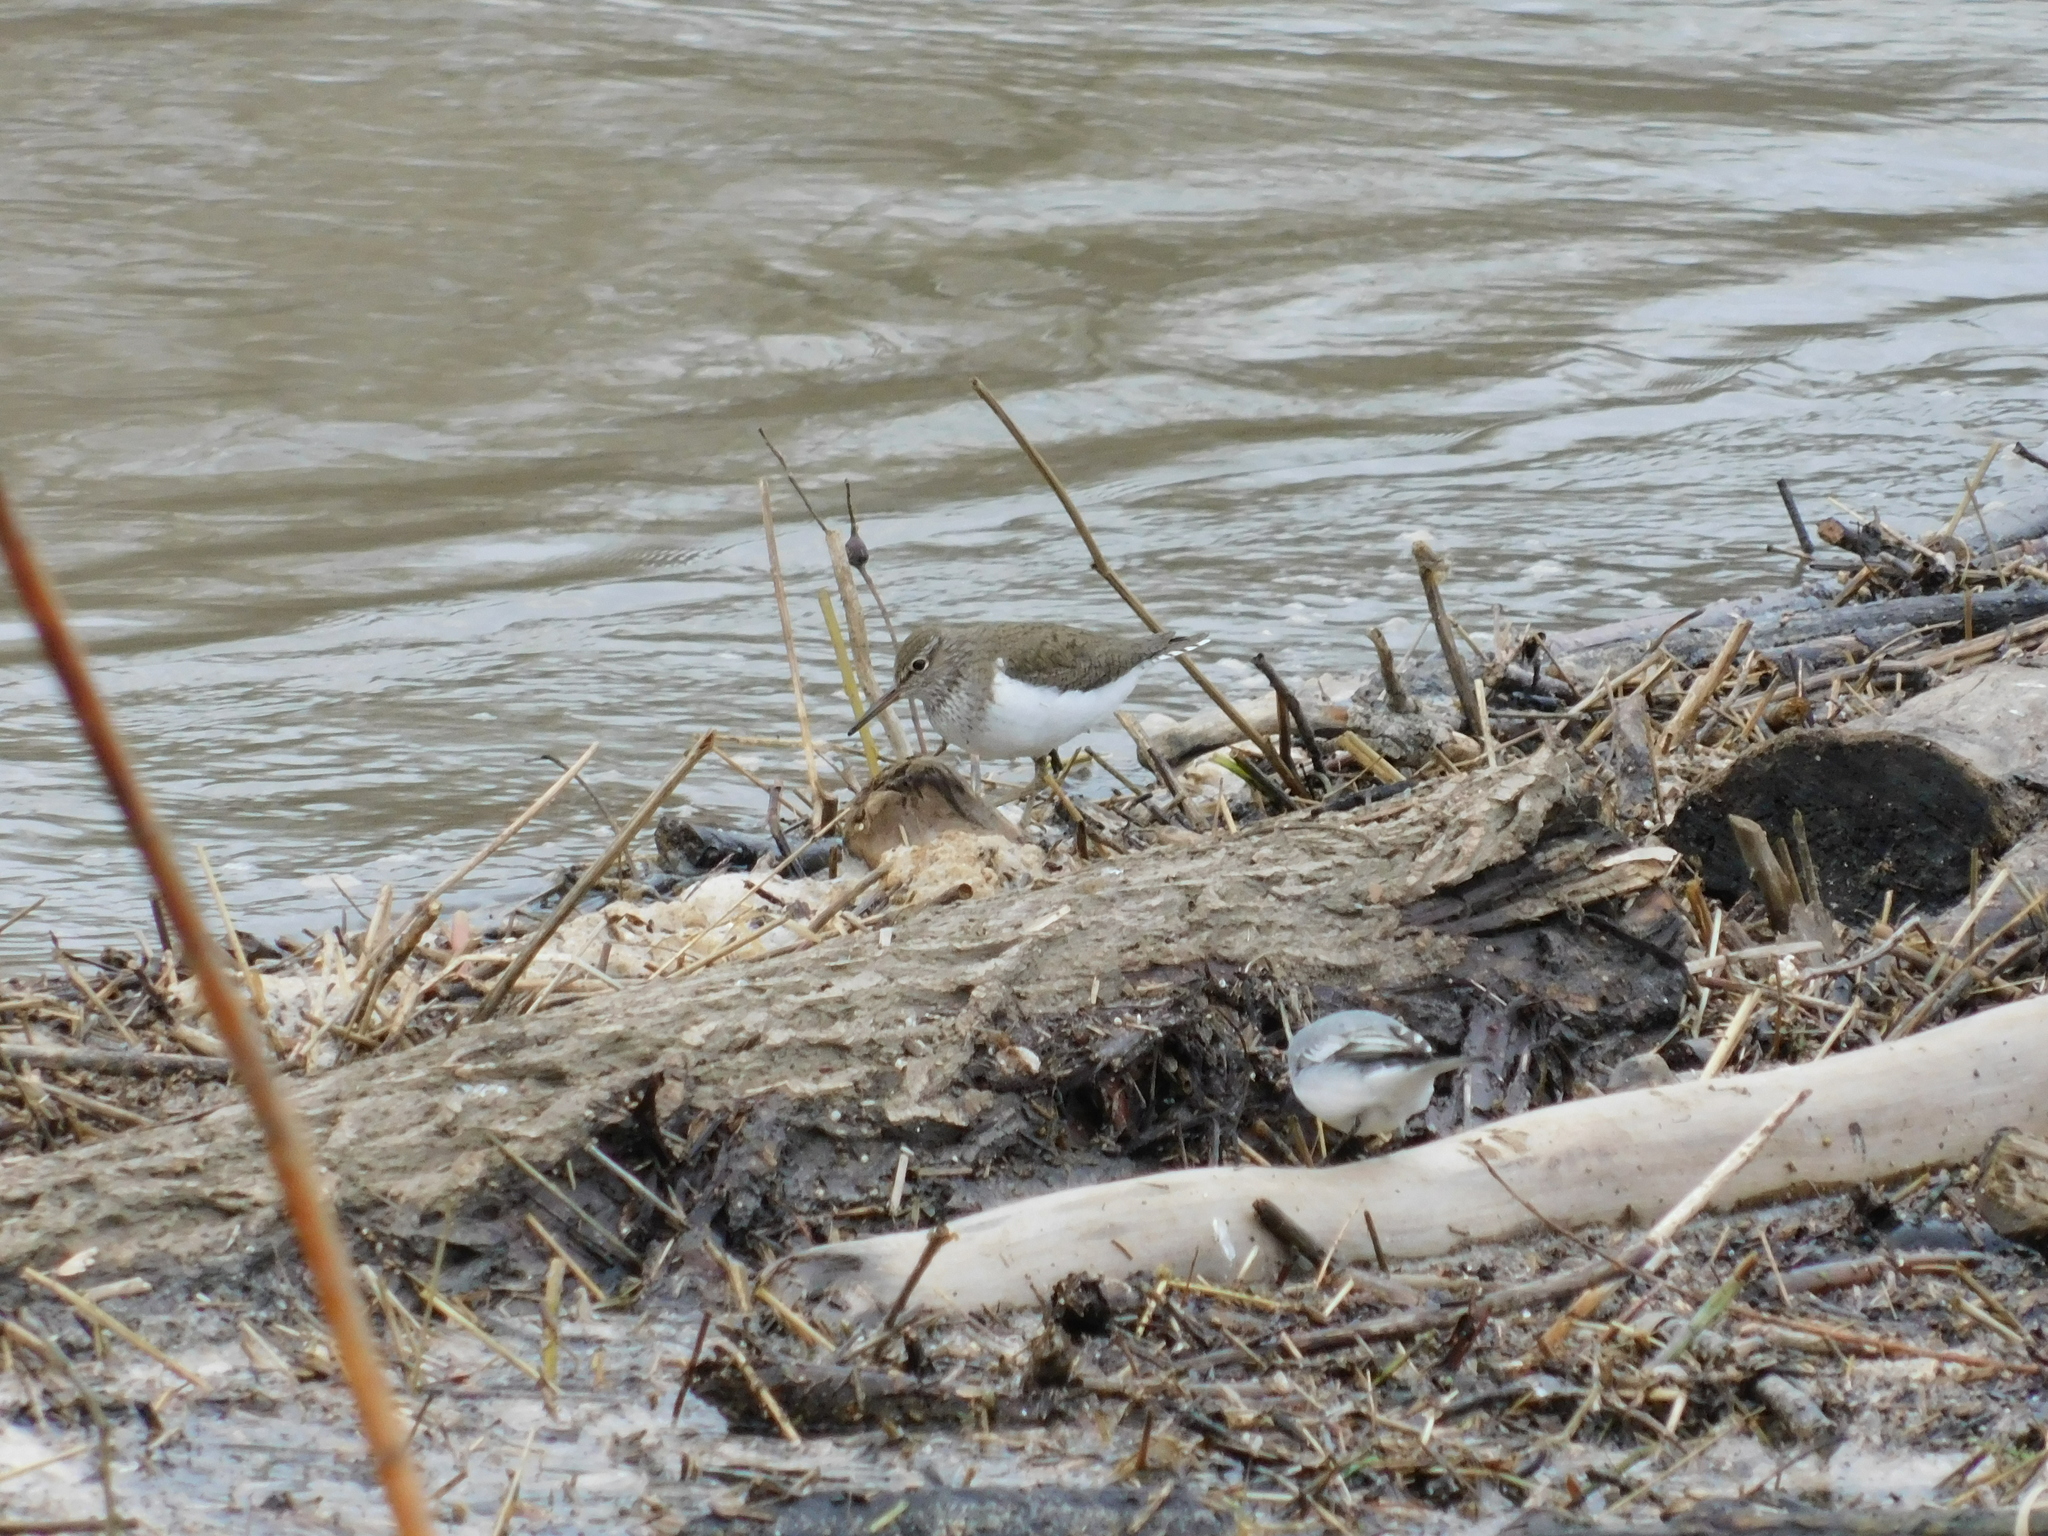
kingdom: Animalia
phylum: Chordata
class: Aves
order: Charadriiformes
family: Scolopacidae
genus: Actitis
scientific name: Actitis hypoleucos
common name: Common sandpiper
